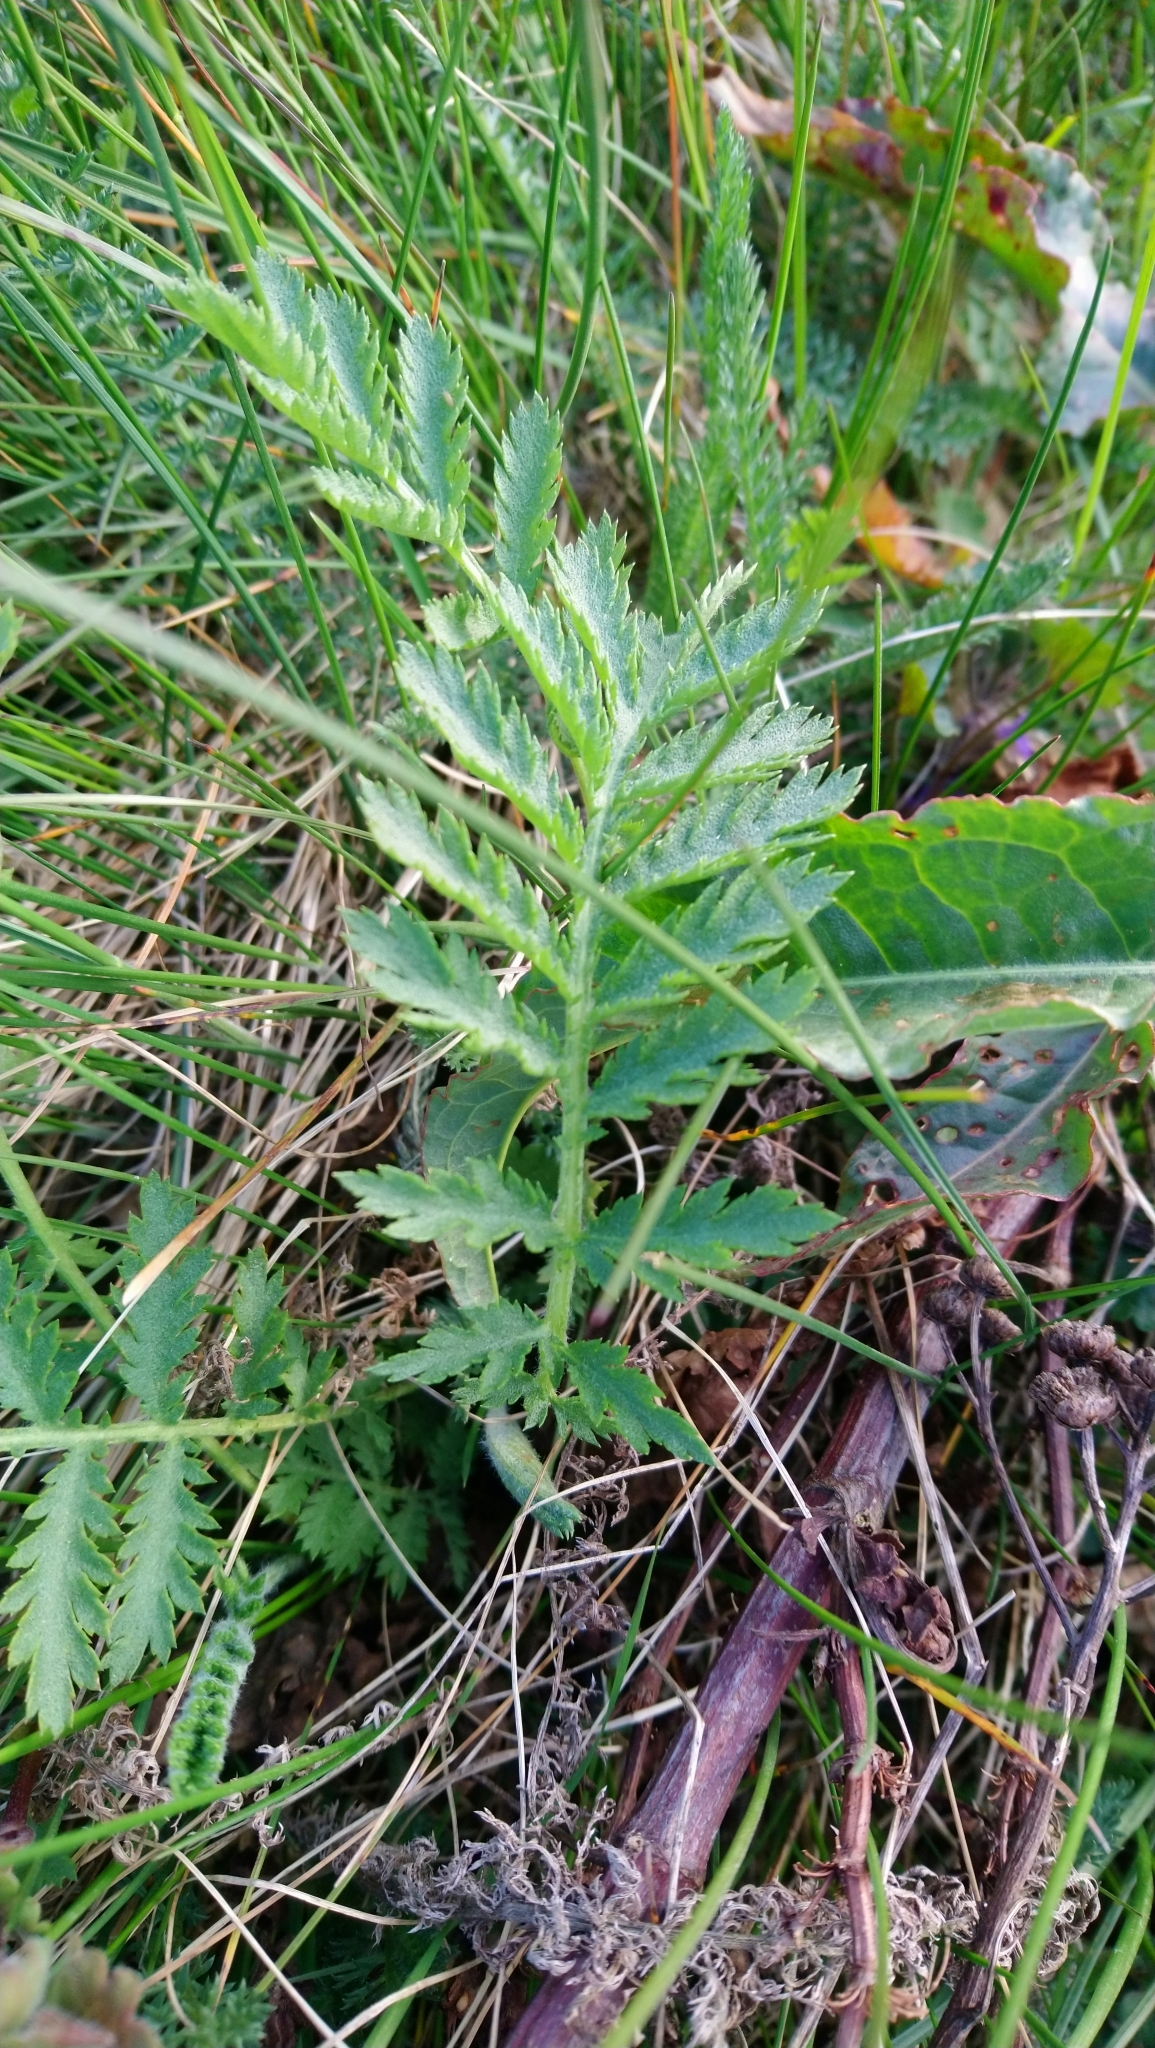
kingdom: Plantae
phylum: Tracheophyta
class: Magnoliopsida
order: Asterales
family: Asteraceae
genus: Tanacetum
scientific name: Tanacetum vulgare
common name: Common tansy
